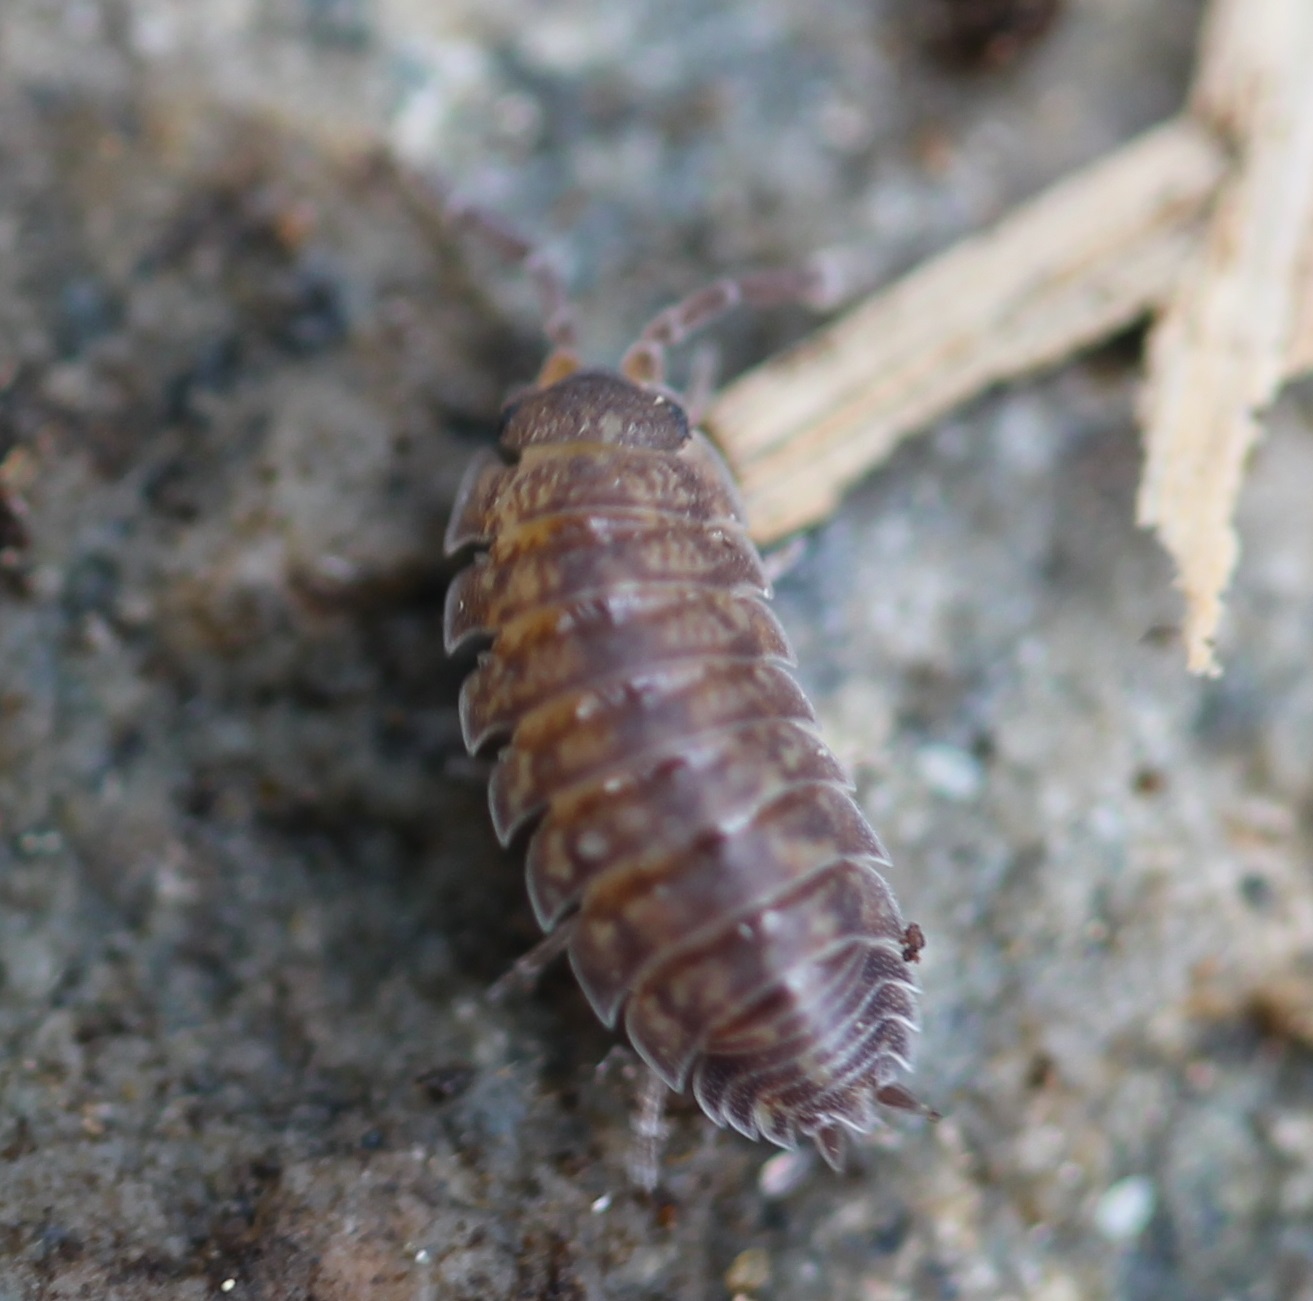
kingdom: Animalia
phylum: Arthropoda
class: Malacostraca
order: Isopoda
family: Porcellionidae
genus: Porcellio
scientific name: Porcellio scaber
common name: Common rough woodlouse
